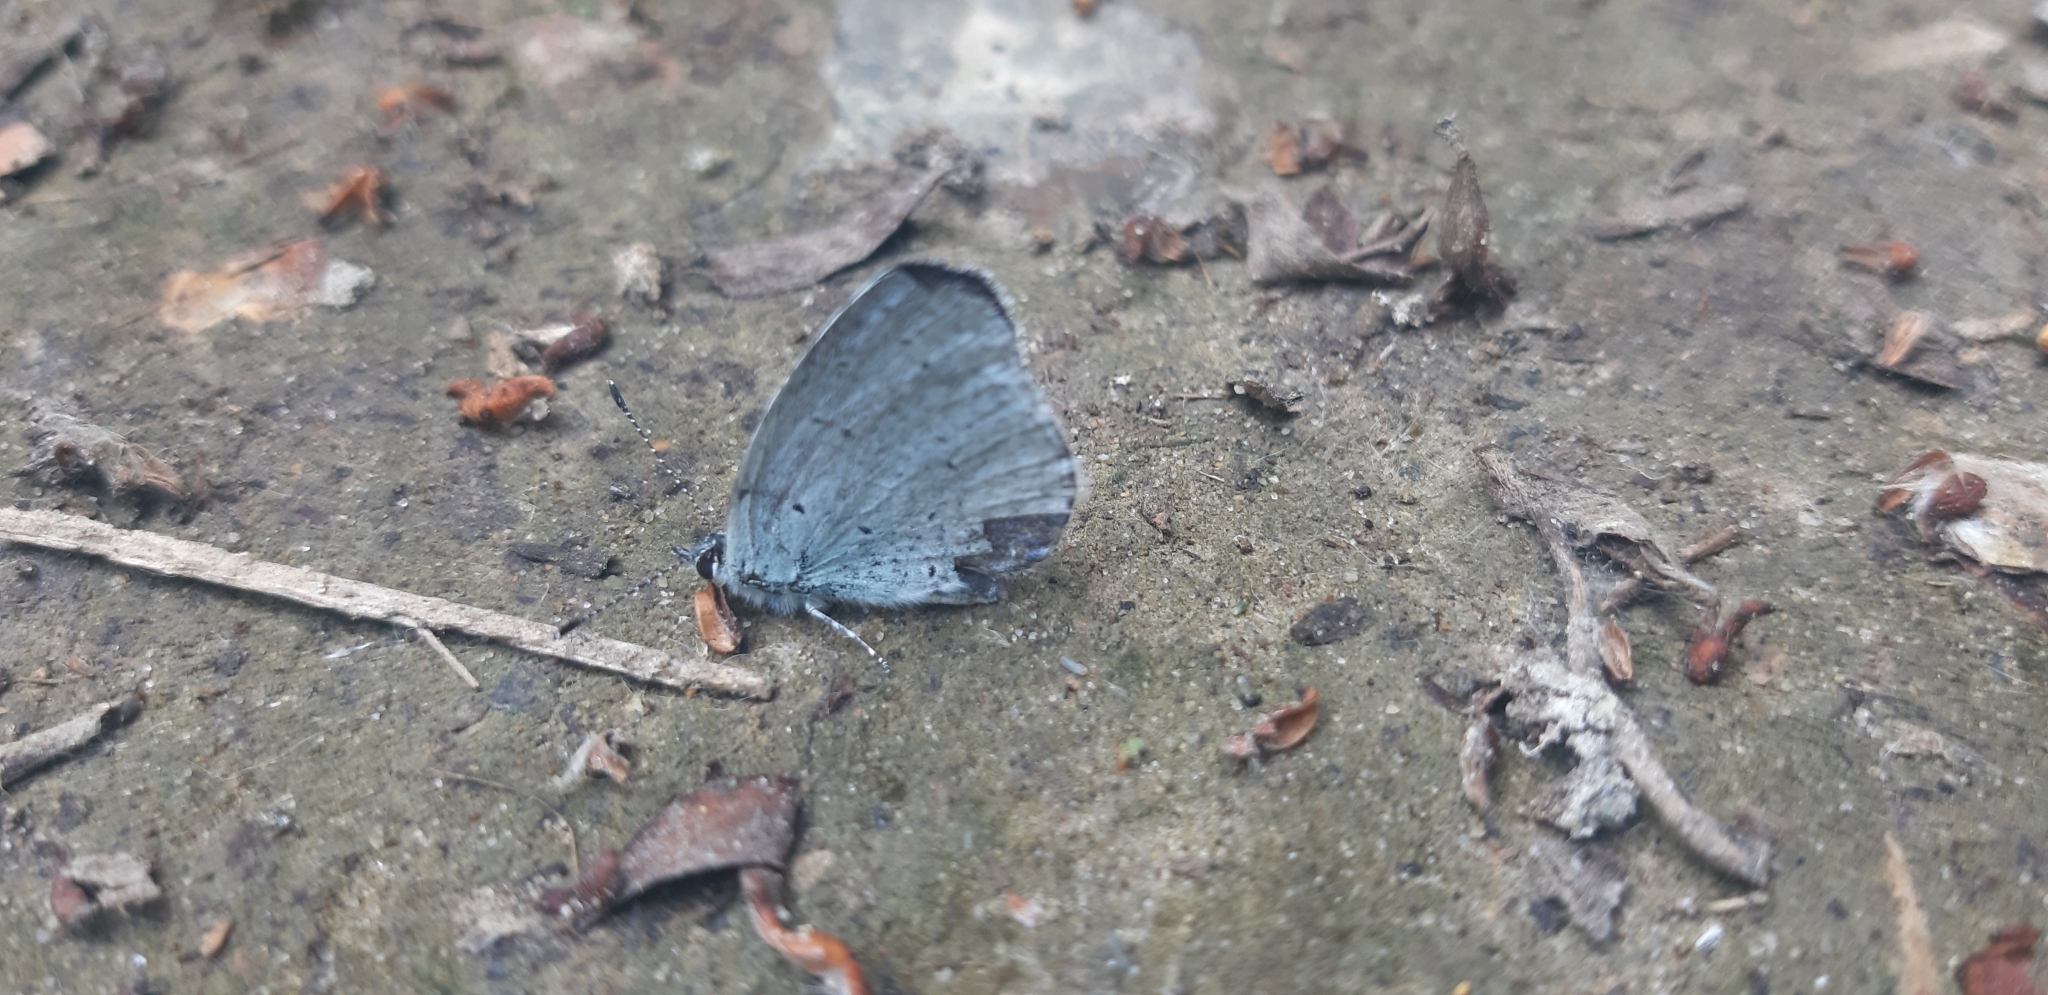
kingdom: Animalia
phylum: Arthropoda
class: Insecta
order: Lepidoptera
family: Lycaenidae
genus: Celastrina
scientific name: Celastrina argiolus
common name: Holly blue
